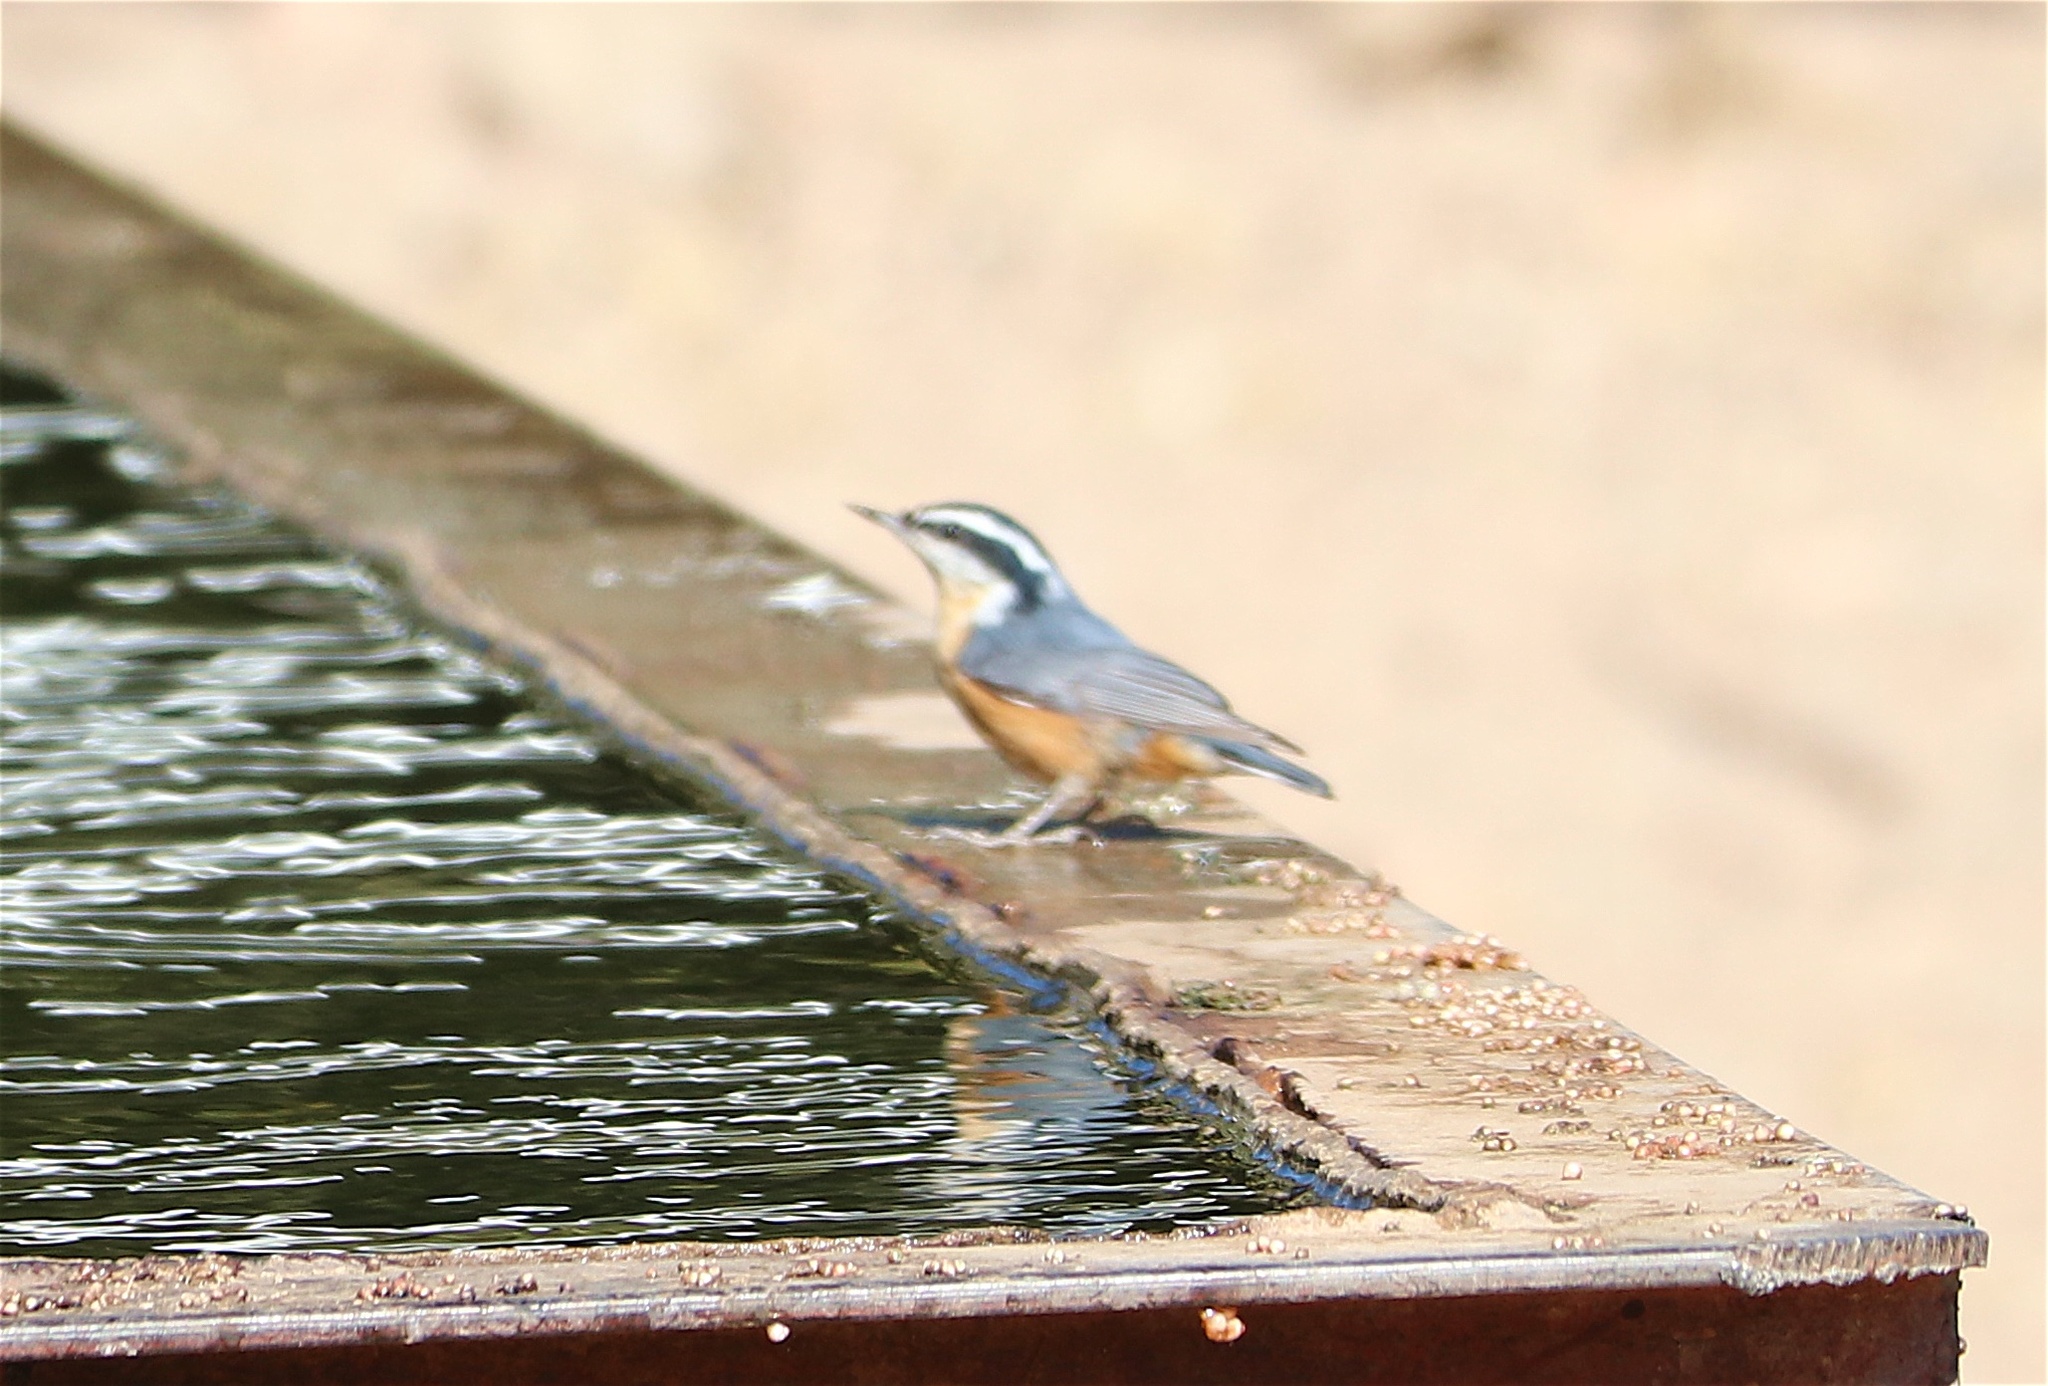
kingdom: Animalia
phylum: Chordata
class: Aves
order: Passeriformes
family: Sittidae
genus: Sitta
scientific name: Sitta canadensis
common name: Red-breasted nuthatch
